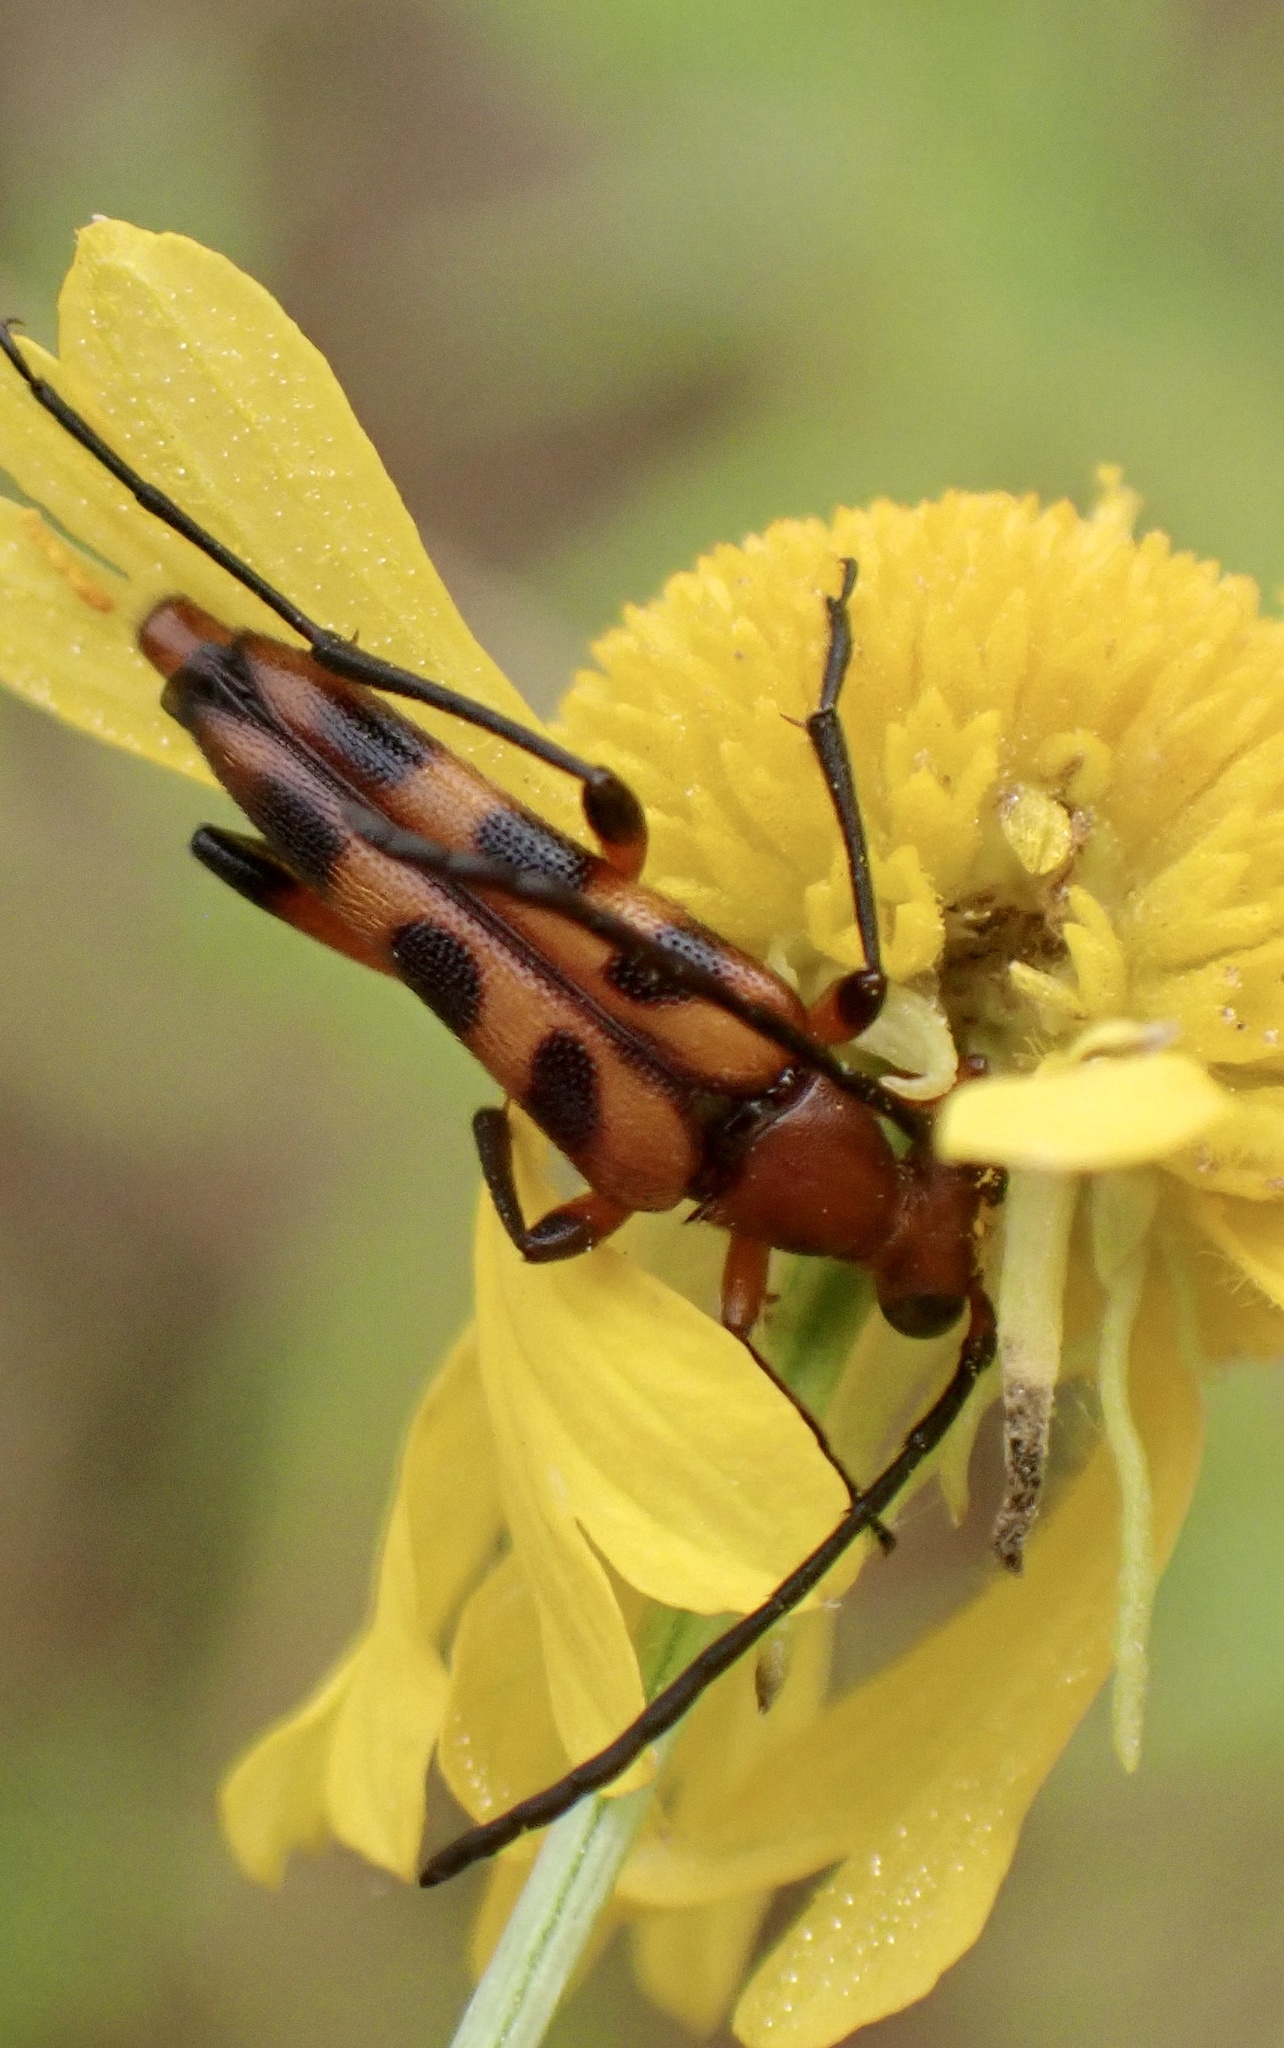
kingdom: Animalia
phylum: Arthropoda
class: Insecta
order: Coleoptera
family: Cerambycidae
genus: Strangalia
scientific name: Strangalia sexnotata
